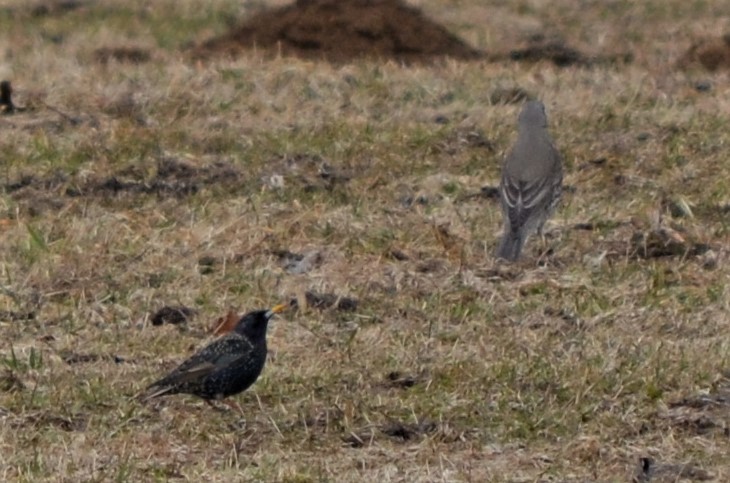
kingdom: Animalia
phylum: Chordata
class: Aves
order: Passeriformes
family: Turdidae
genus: Turdus
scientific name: Turdus viscivorus
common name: Mistle thrush
